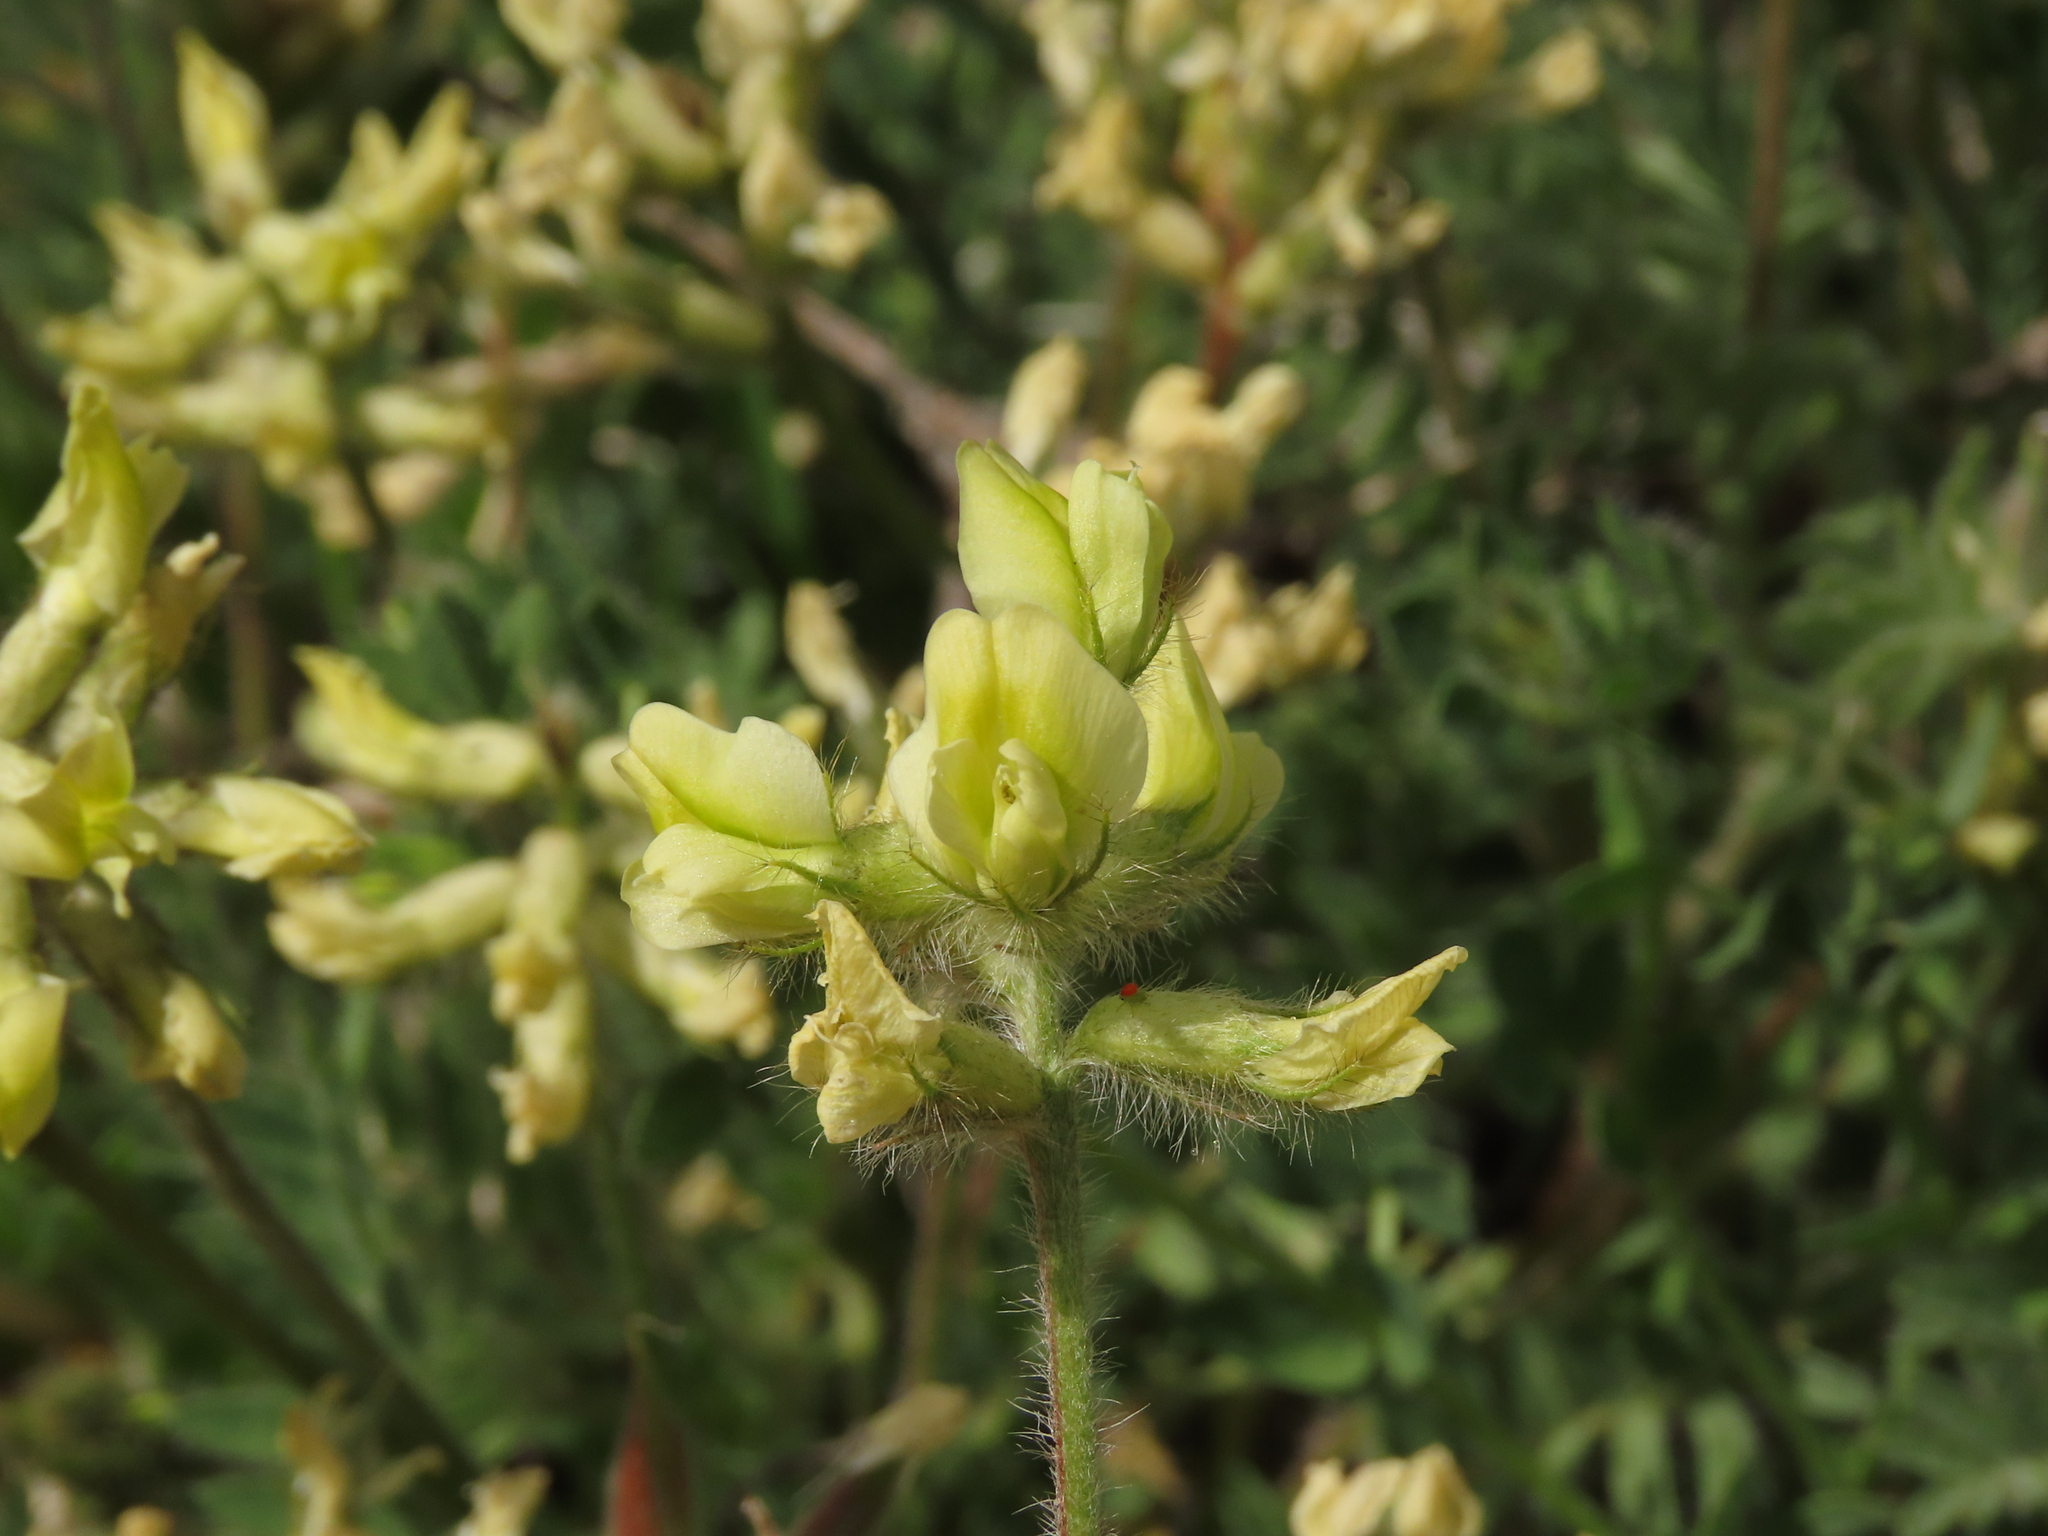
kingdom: Plantae
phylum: Tracheophyta
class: Magnoliopsida
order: Fabales
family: Fabaceae
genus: Oxytropis
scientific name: Oxytropis pilosa
